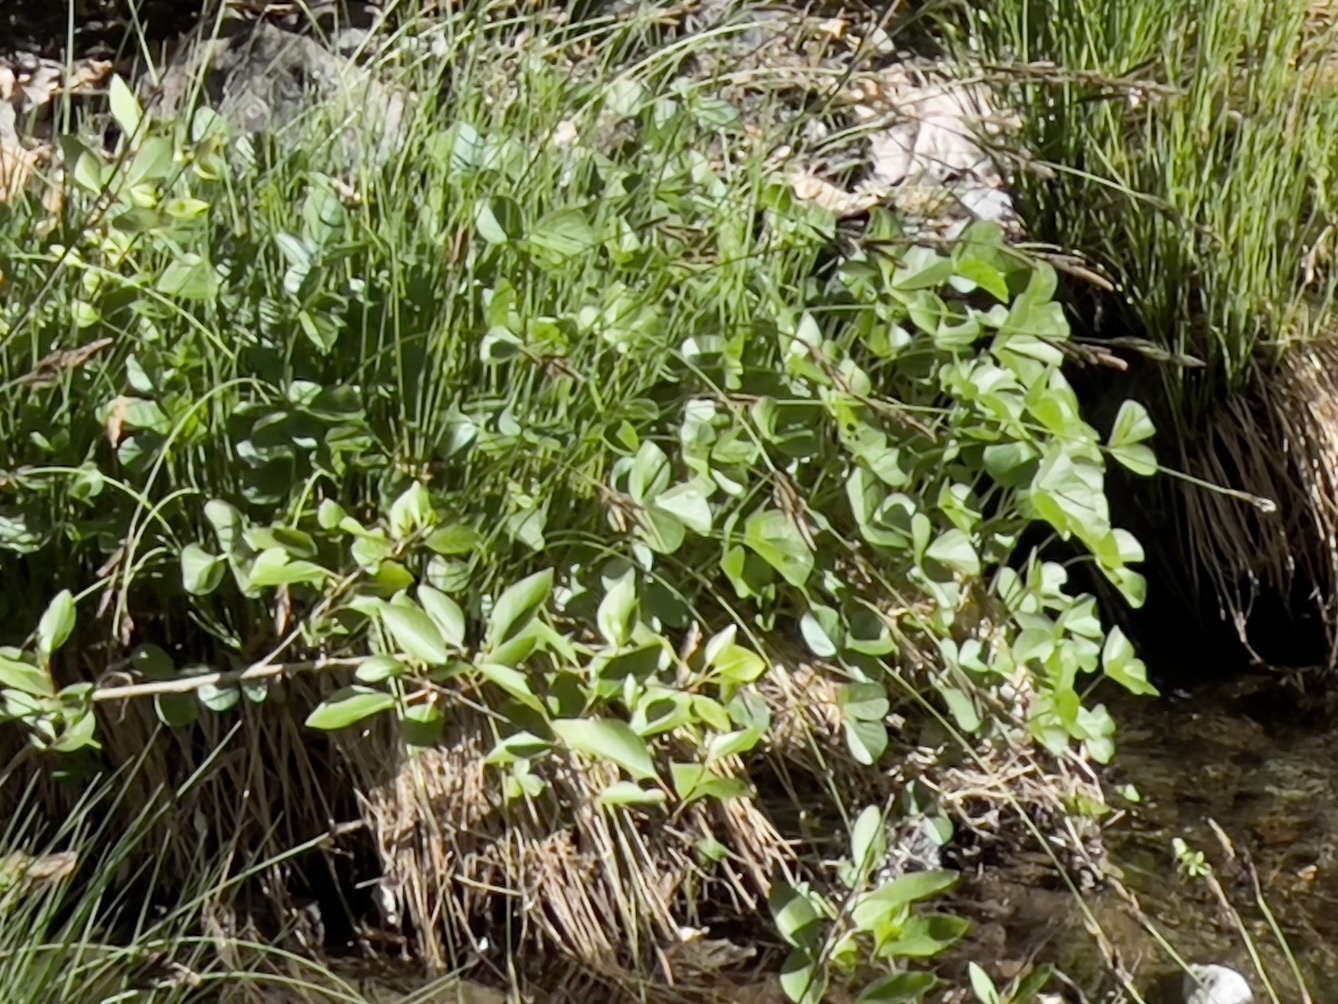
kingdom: Plantae
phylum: Tracheophyta
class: Magnoliopsida
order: Fabales
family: Fabaceae
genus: Hoita
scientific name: Hoita orbicularis
